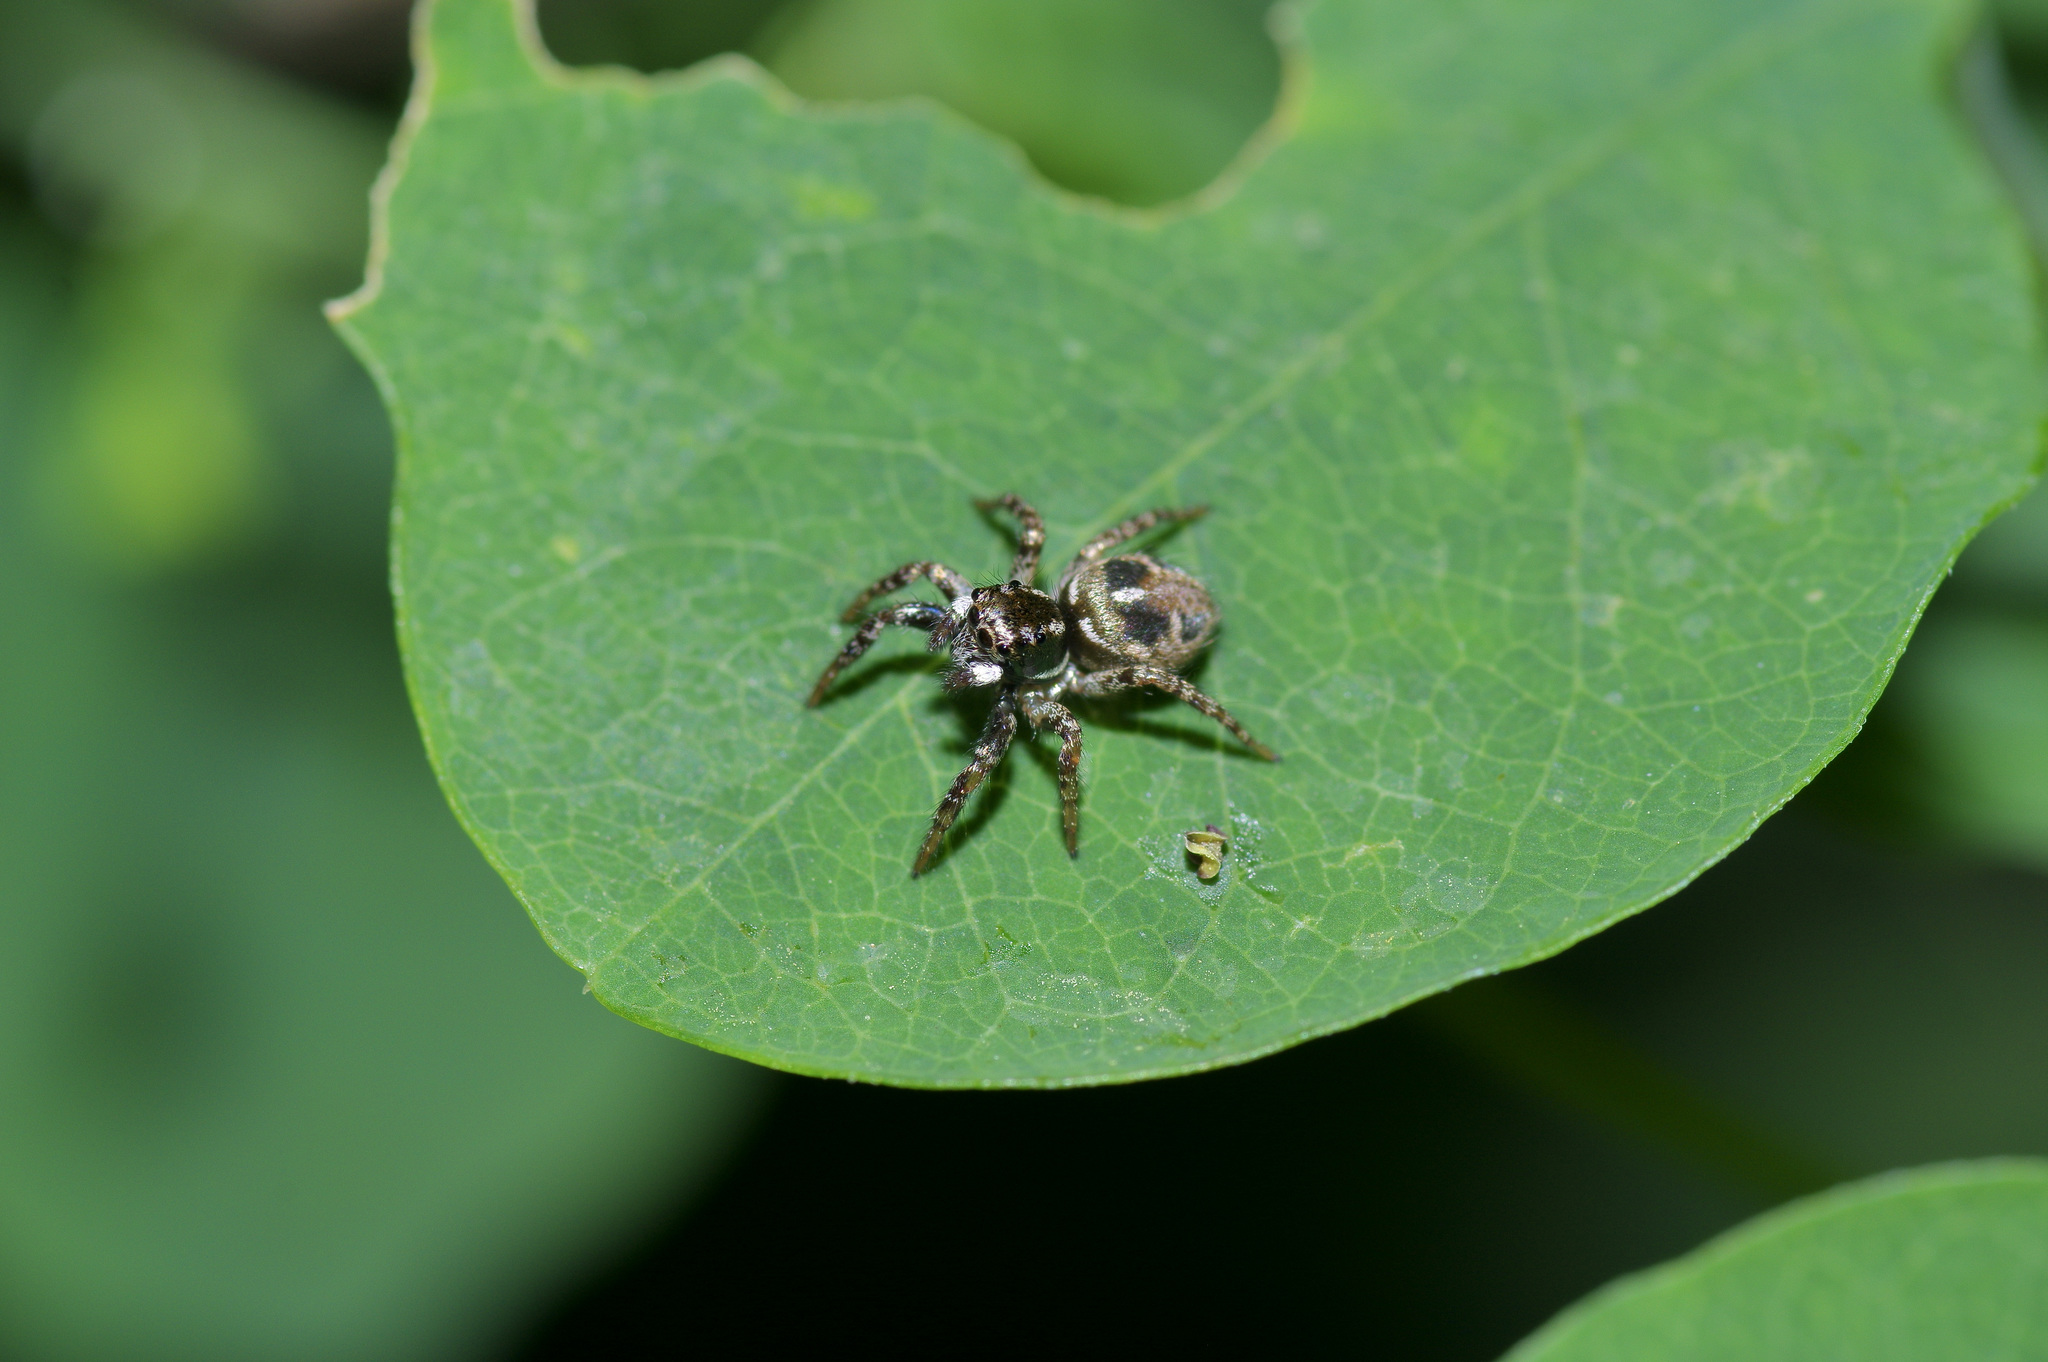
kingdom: Animalia
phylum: Arthropoda
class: Arachnida
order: Araneae
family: Salticidae
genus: Anasaitis
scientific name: Anasaitis canosa
